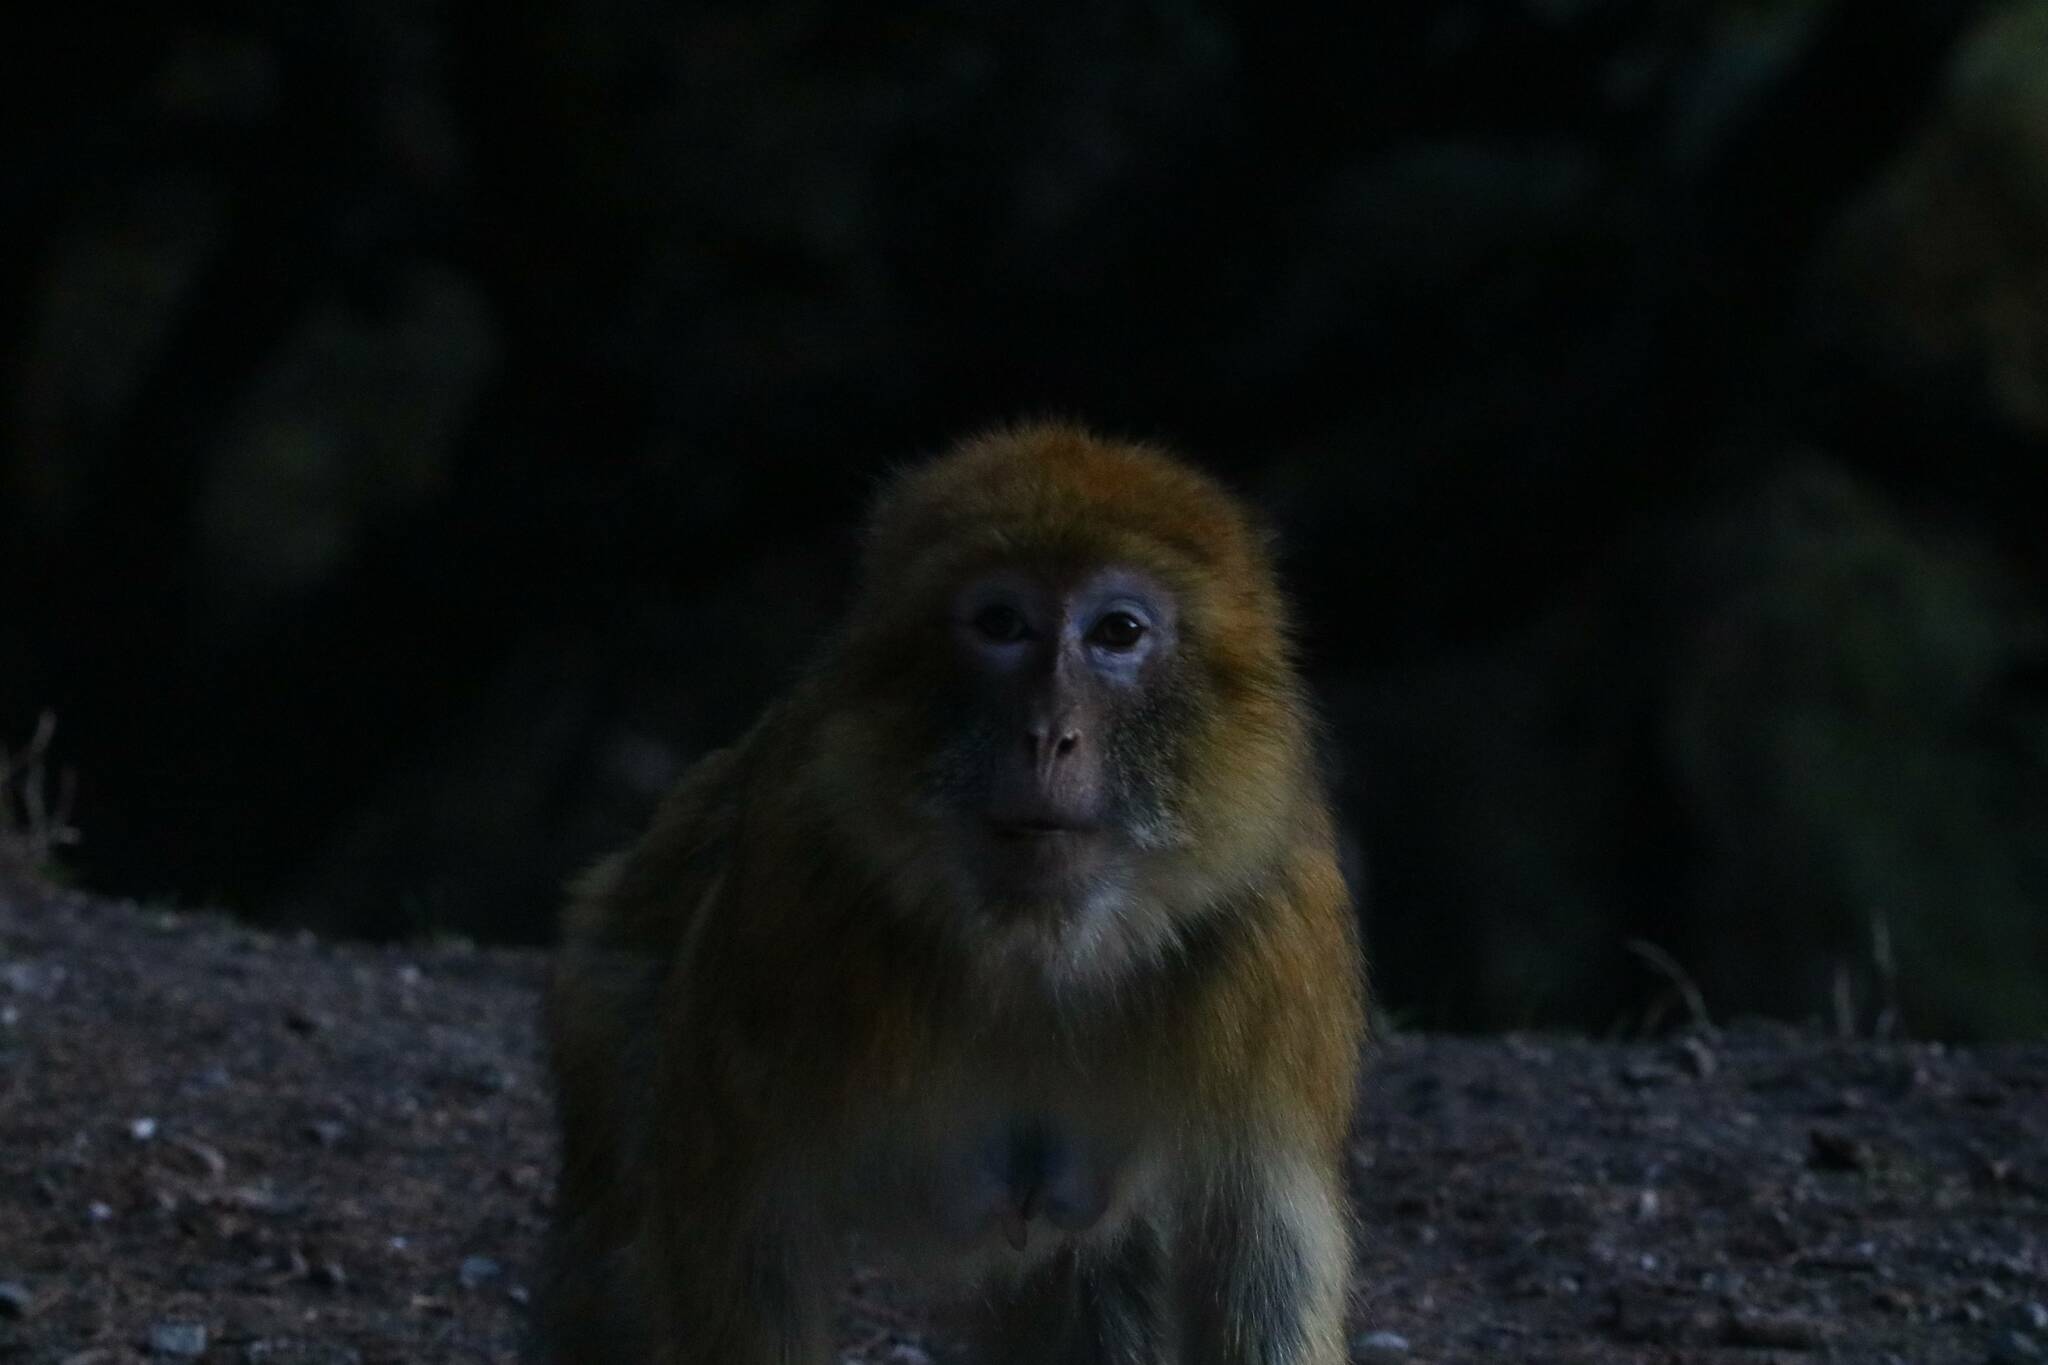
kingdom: Animalia
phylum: Chordata
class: Mammalia
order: Primates
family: Cercopithecidae
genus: Macaca
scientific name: Macaca sylvanus
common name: Barbary macaque
